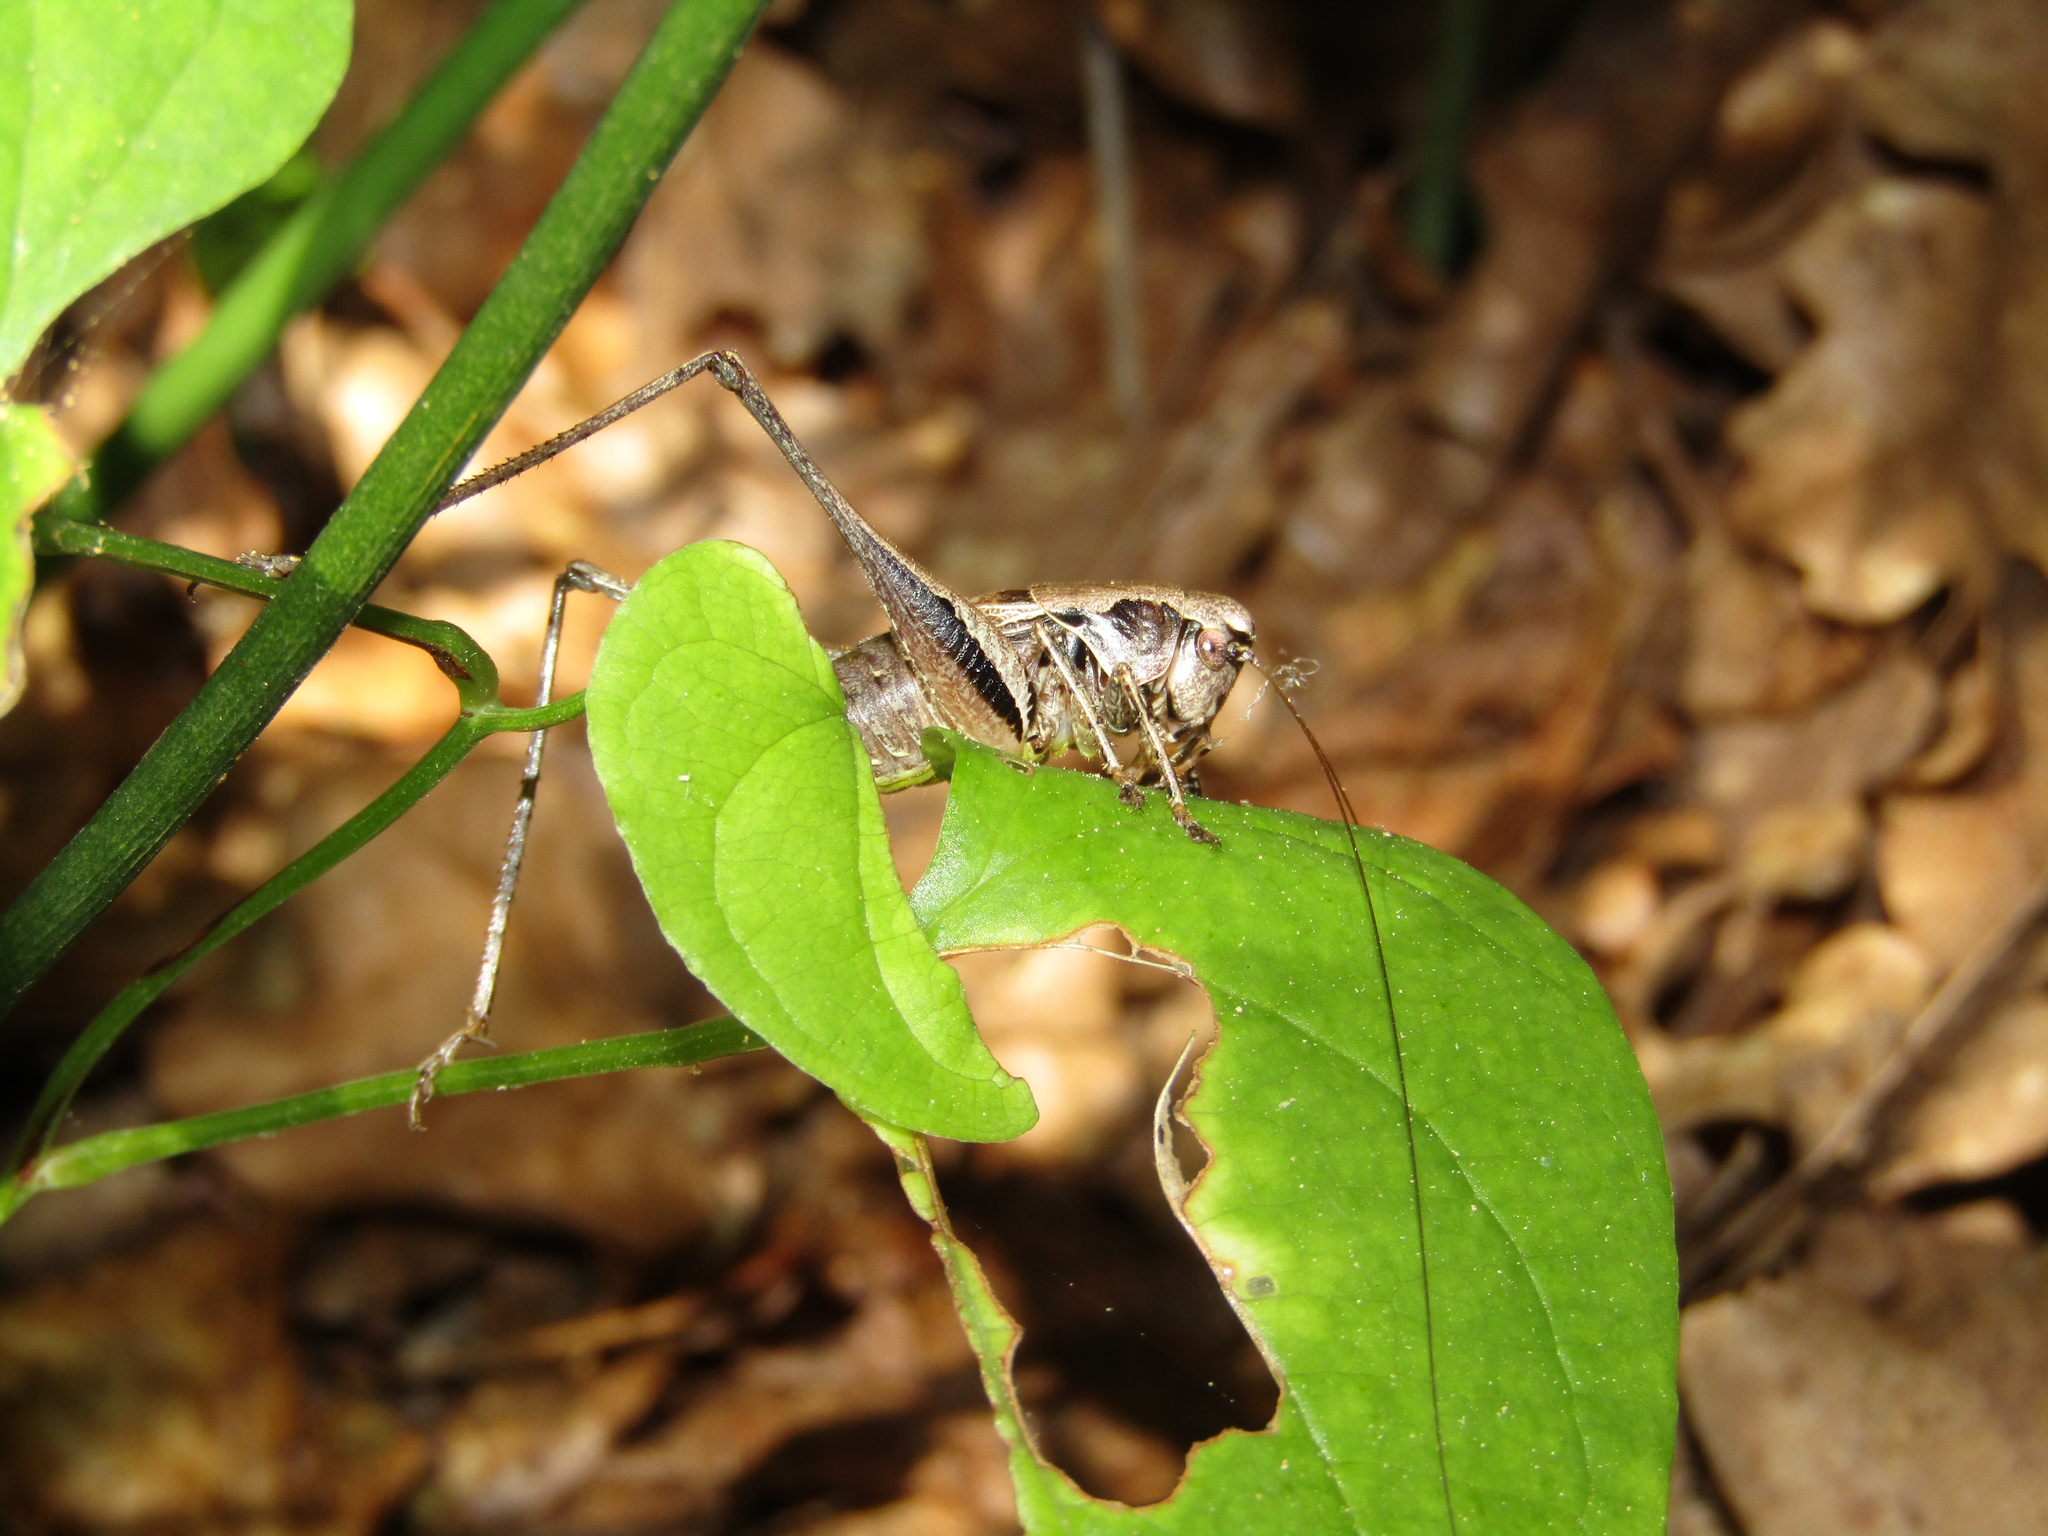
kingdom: Animalia
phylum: Arthropoda
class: Insecta
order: Orthoptera
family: Tettigoniidae
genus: Pholidoptera
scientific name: Pholidoptera griseoaptera
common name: Dark bush-cricket
